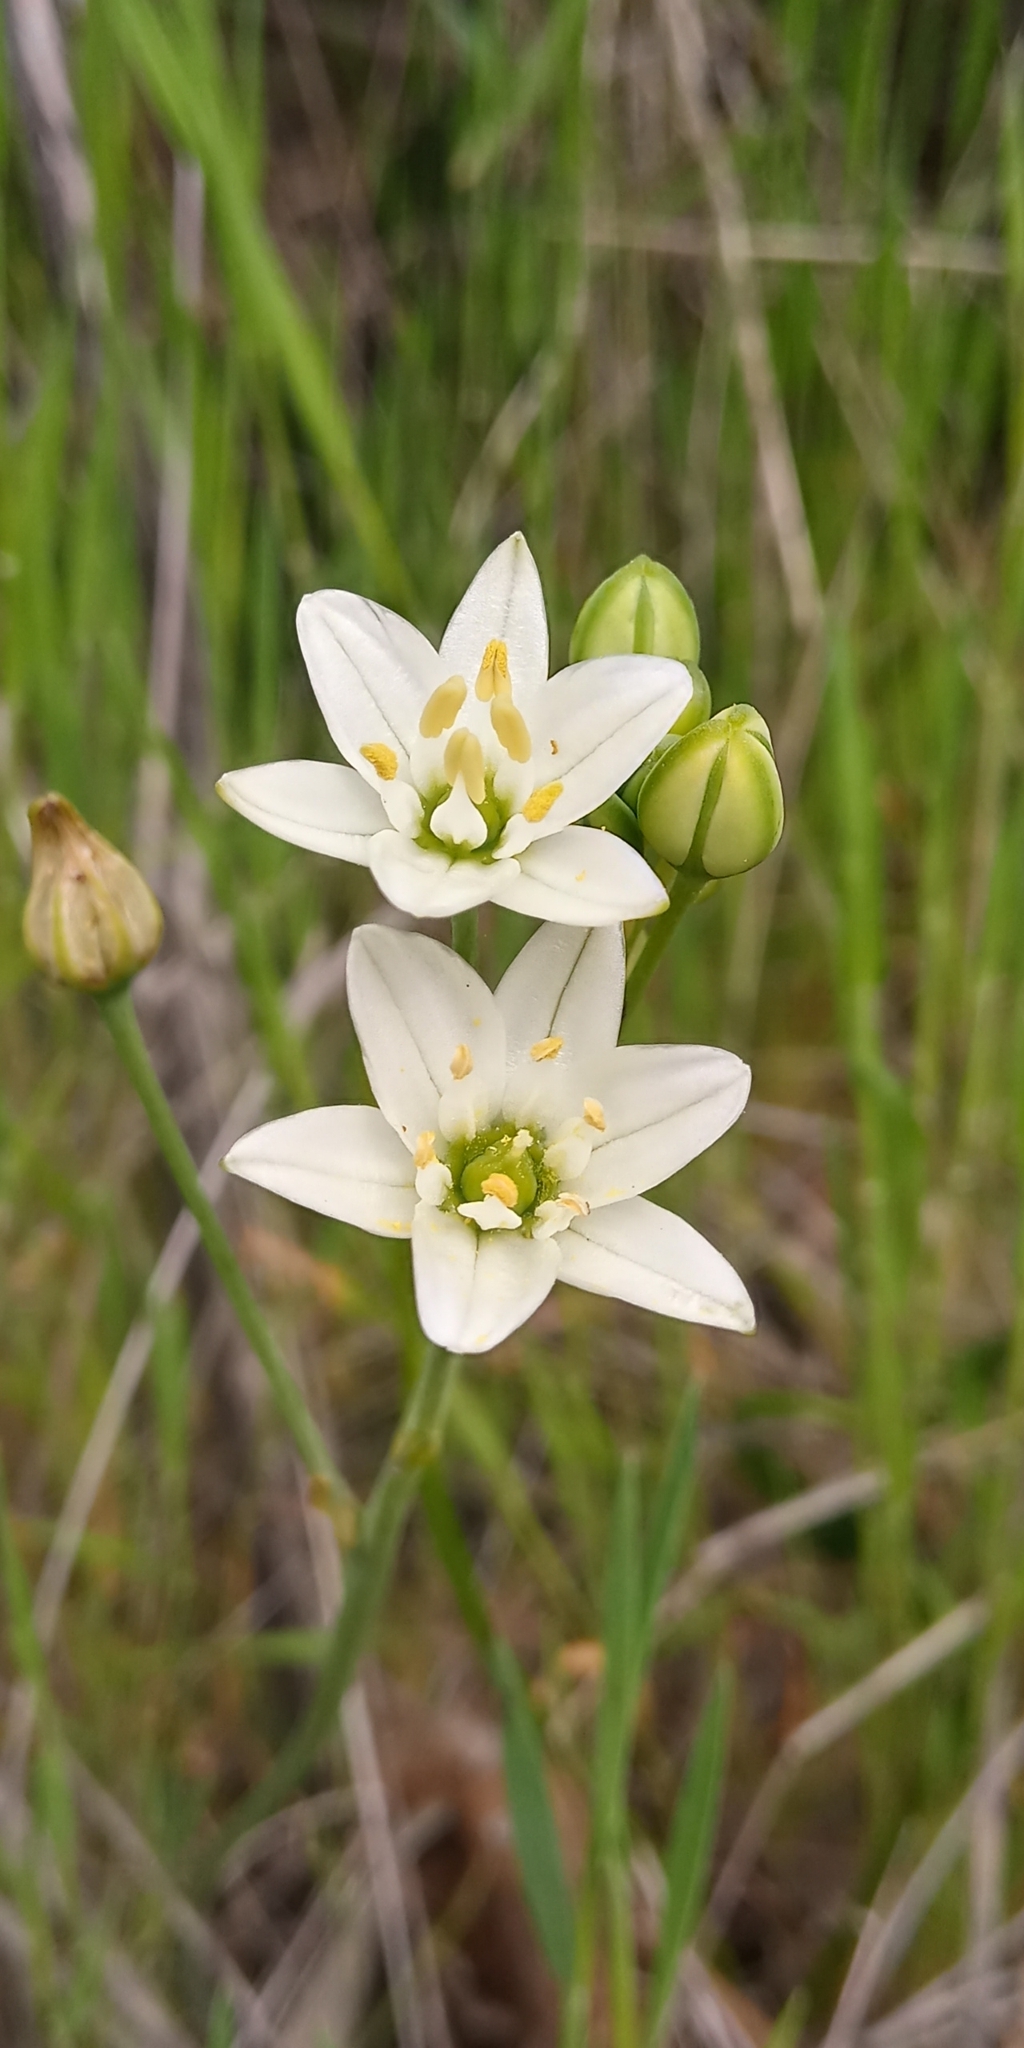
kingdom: Plantae
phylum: Tracheophyta
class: Liliopsida
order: Asparagales
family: Asparagaceae
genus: Oziroe
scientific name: Oziroe arida
